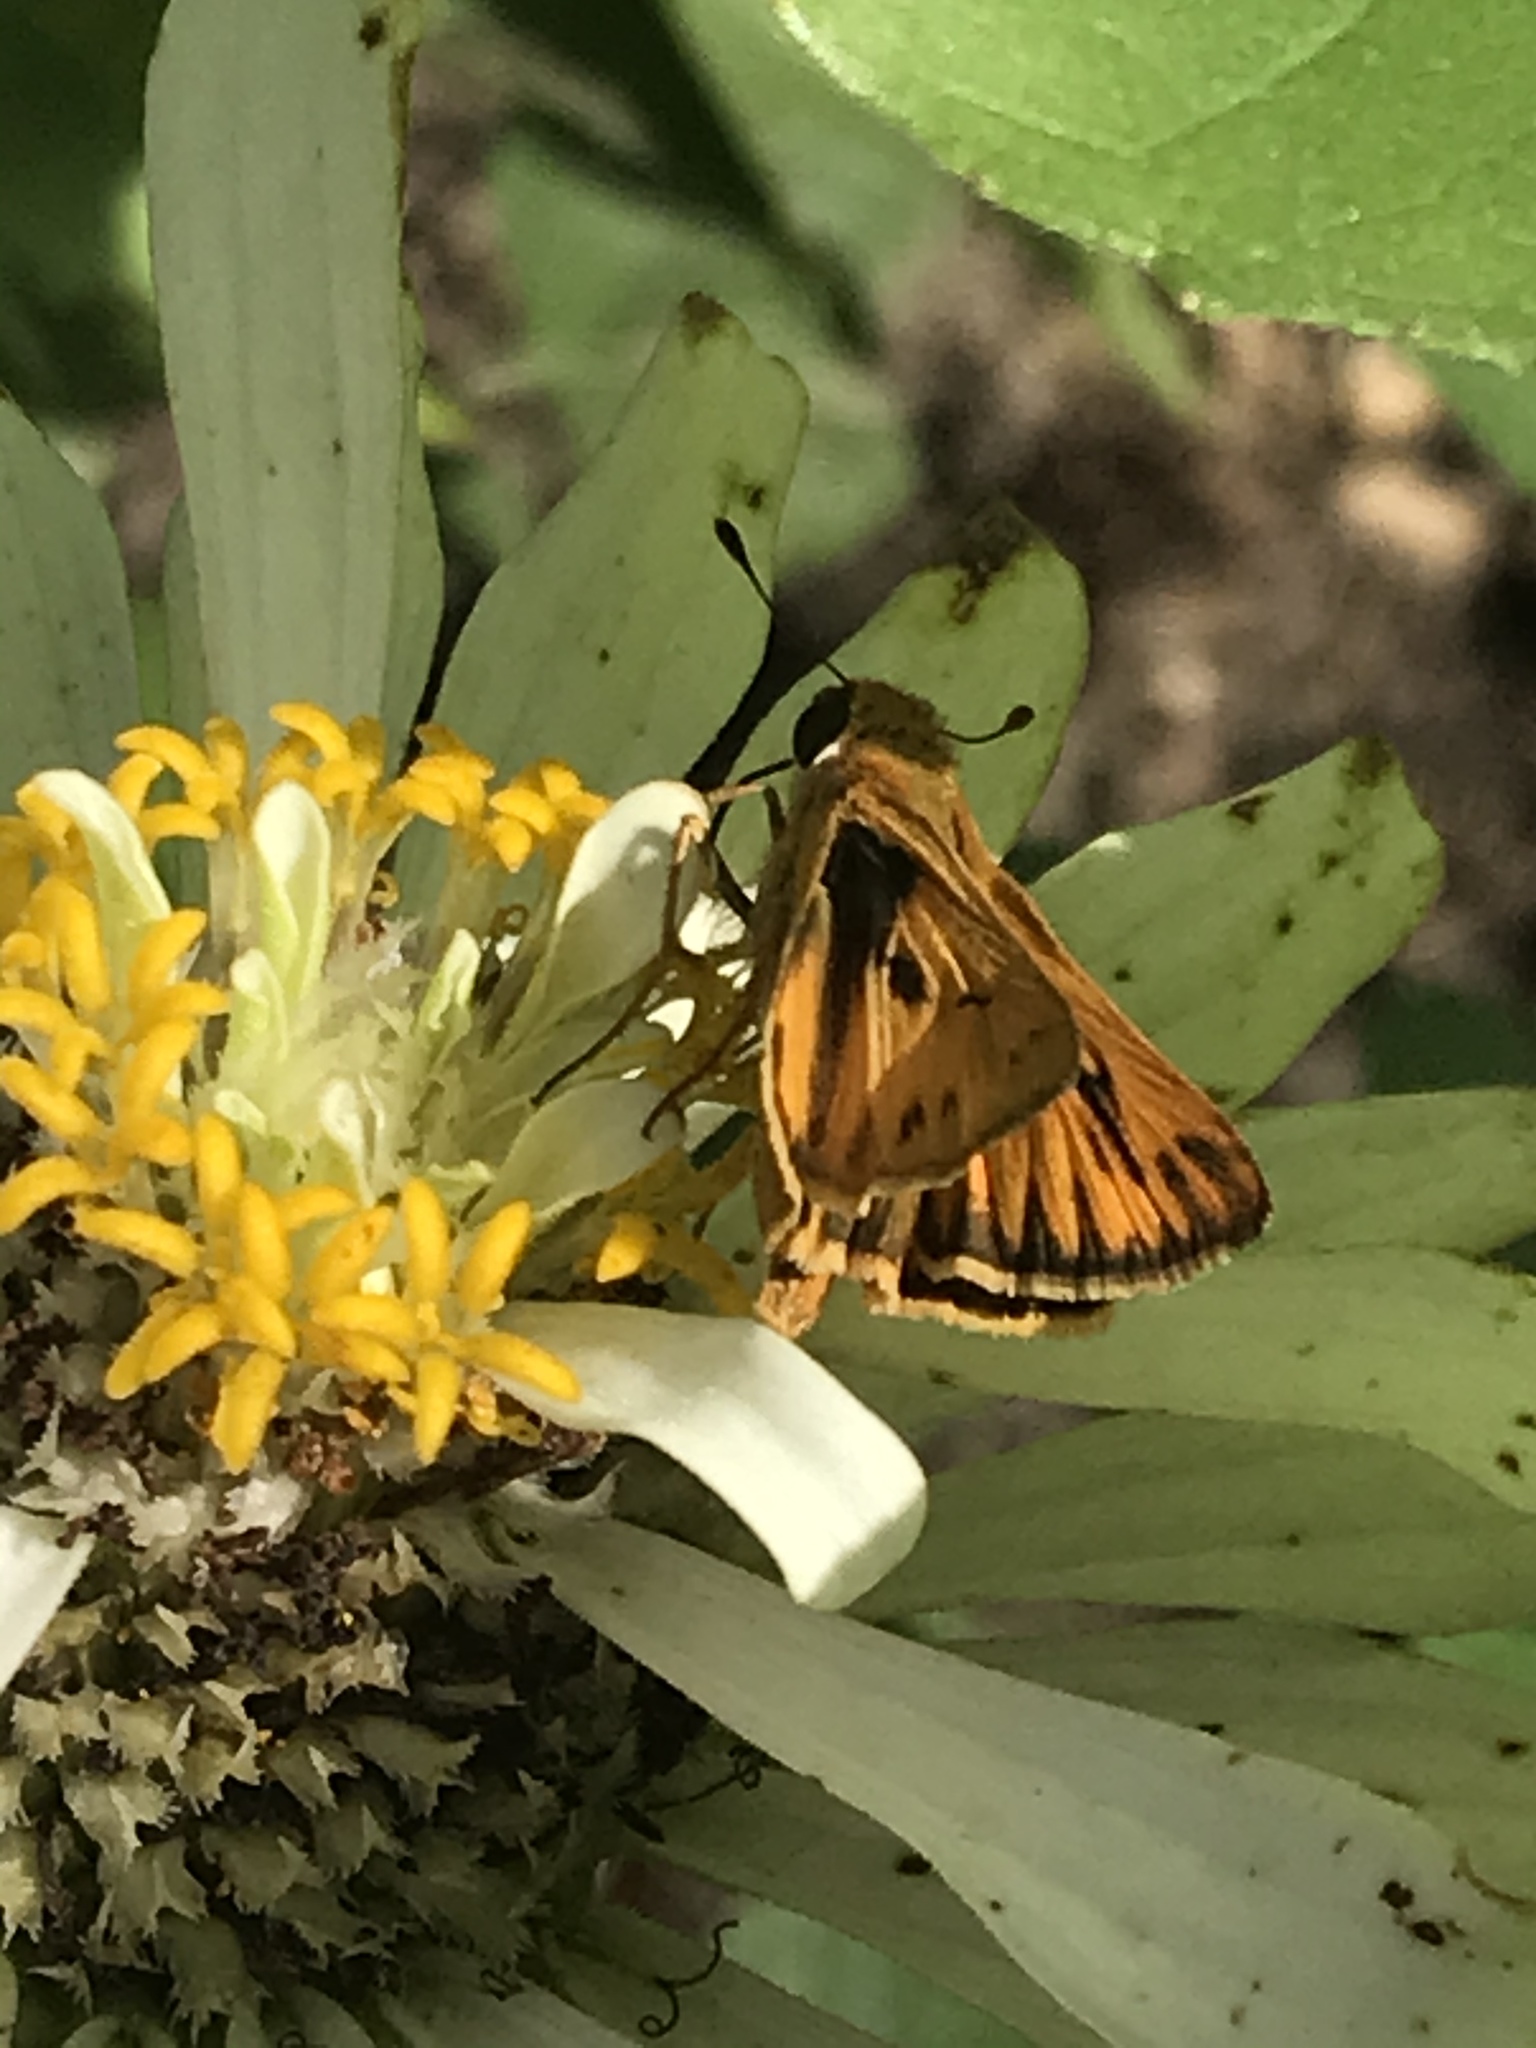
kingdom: Animalia
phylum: Arthropoda
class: Insecta
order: Lepidoptera
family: Hesperiidae
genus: Hylephila
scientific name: Hylephila phyleus
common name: Fiery skipper
